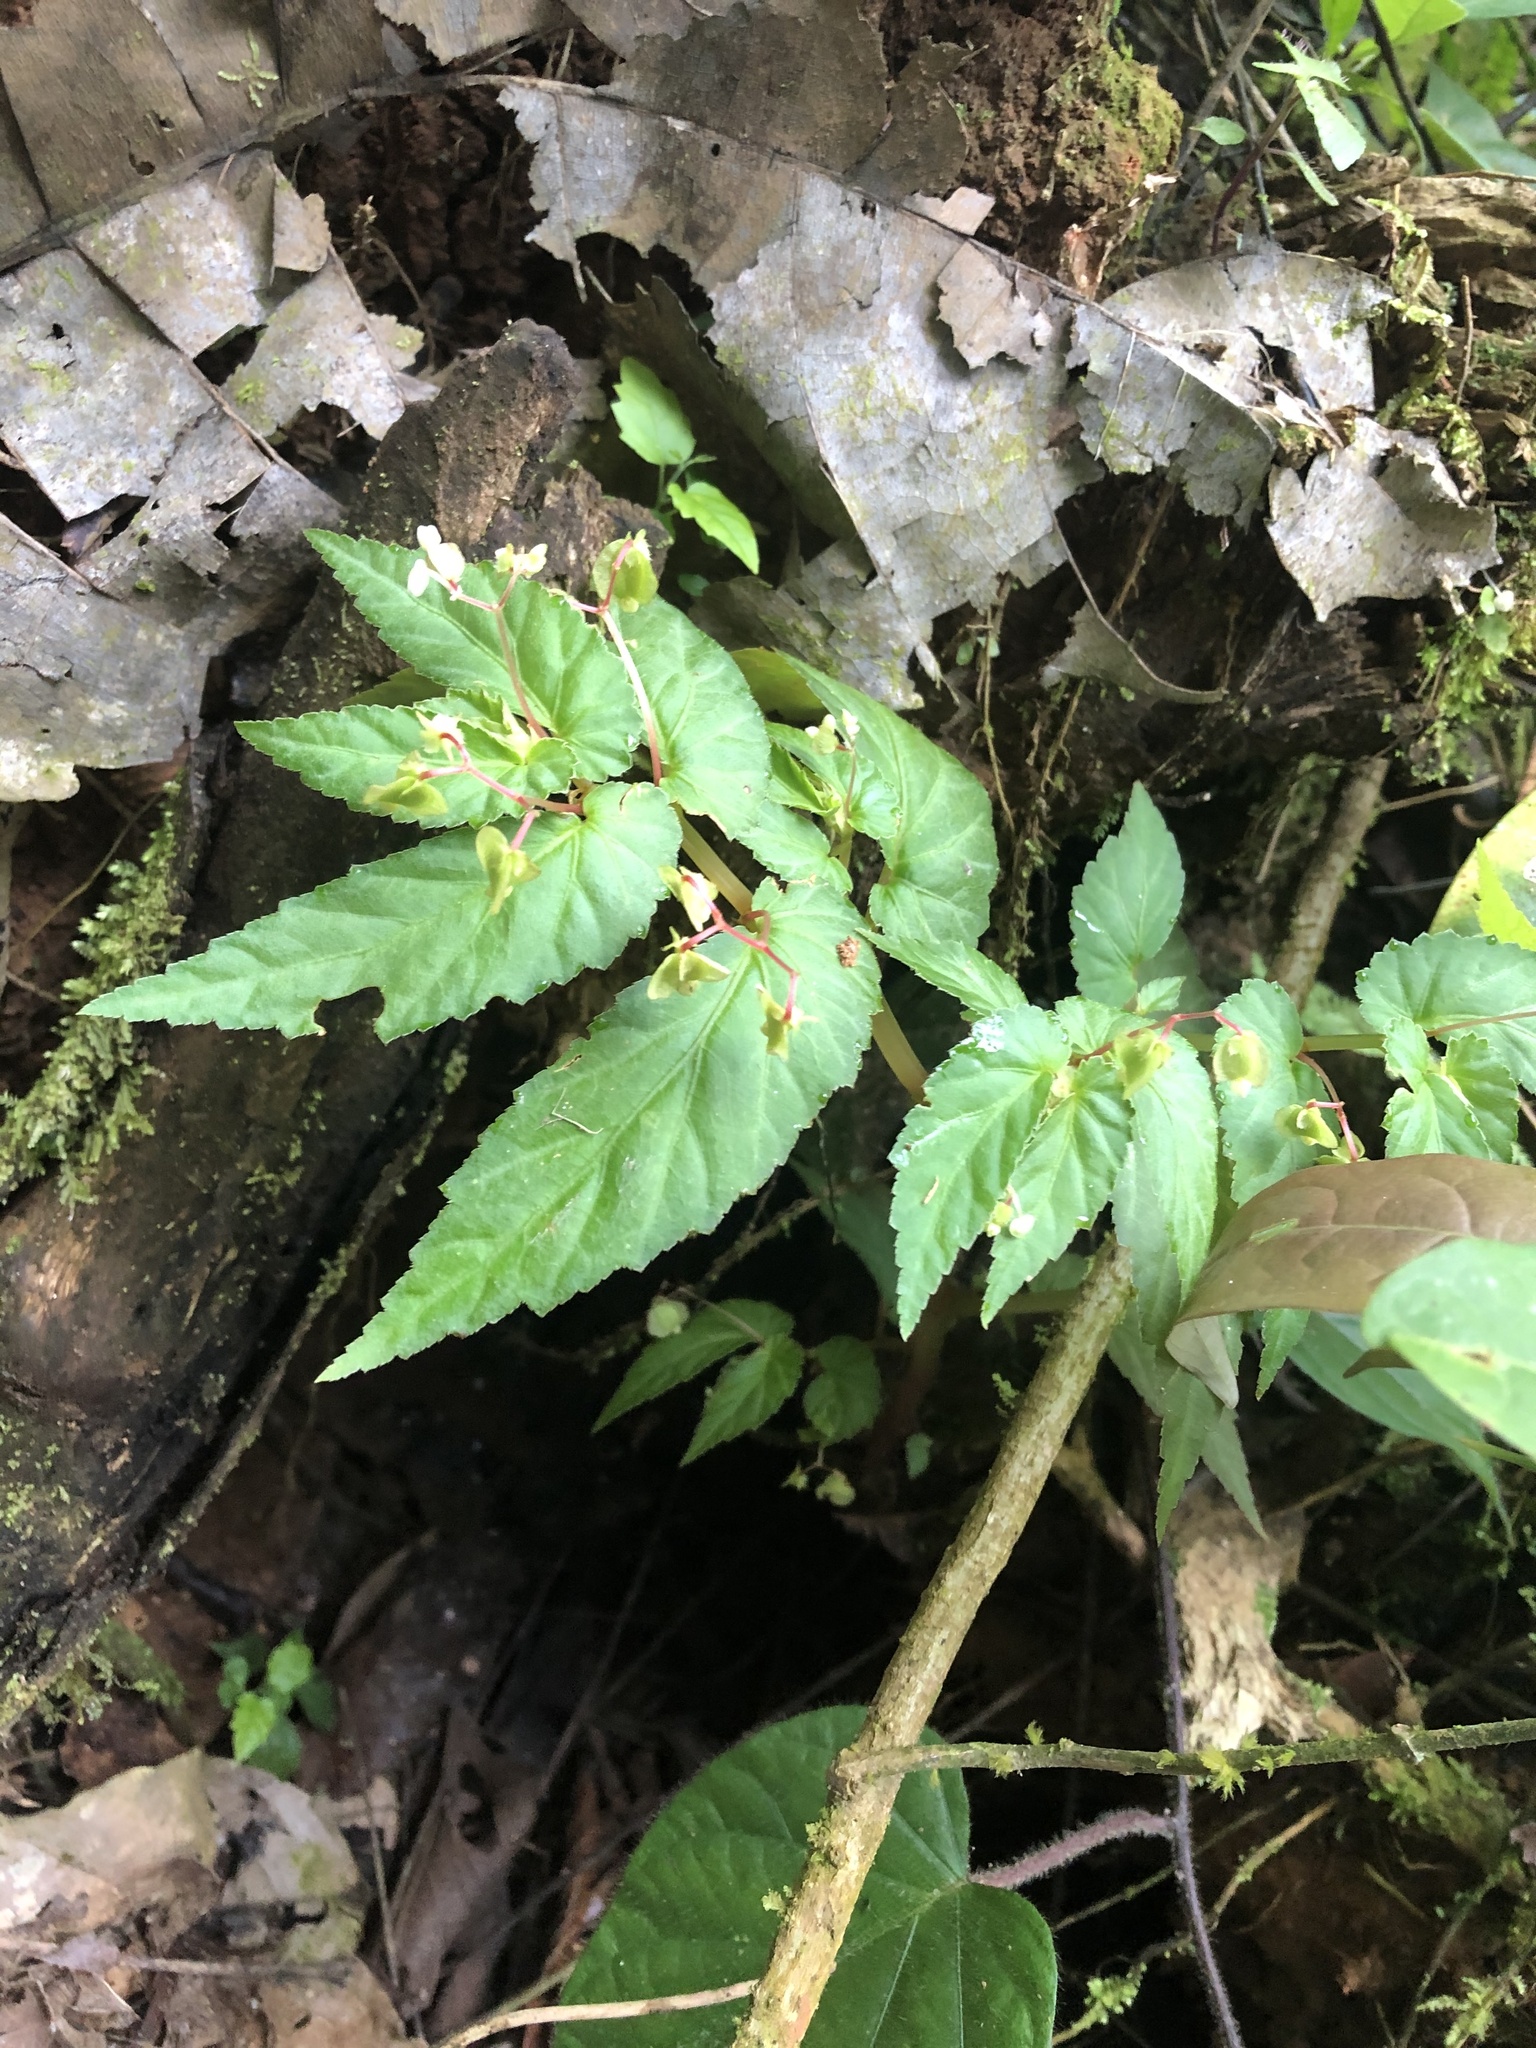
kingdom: Plantae
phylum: Tracheophyta
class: Magnoliopsida
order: Cucurbitales
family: Begoniaceae
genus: Begonia
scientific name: Begonia humilis
